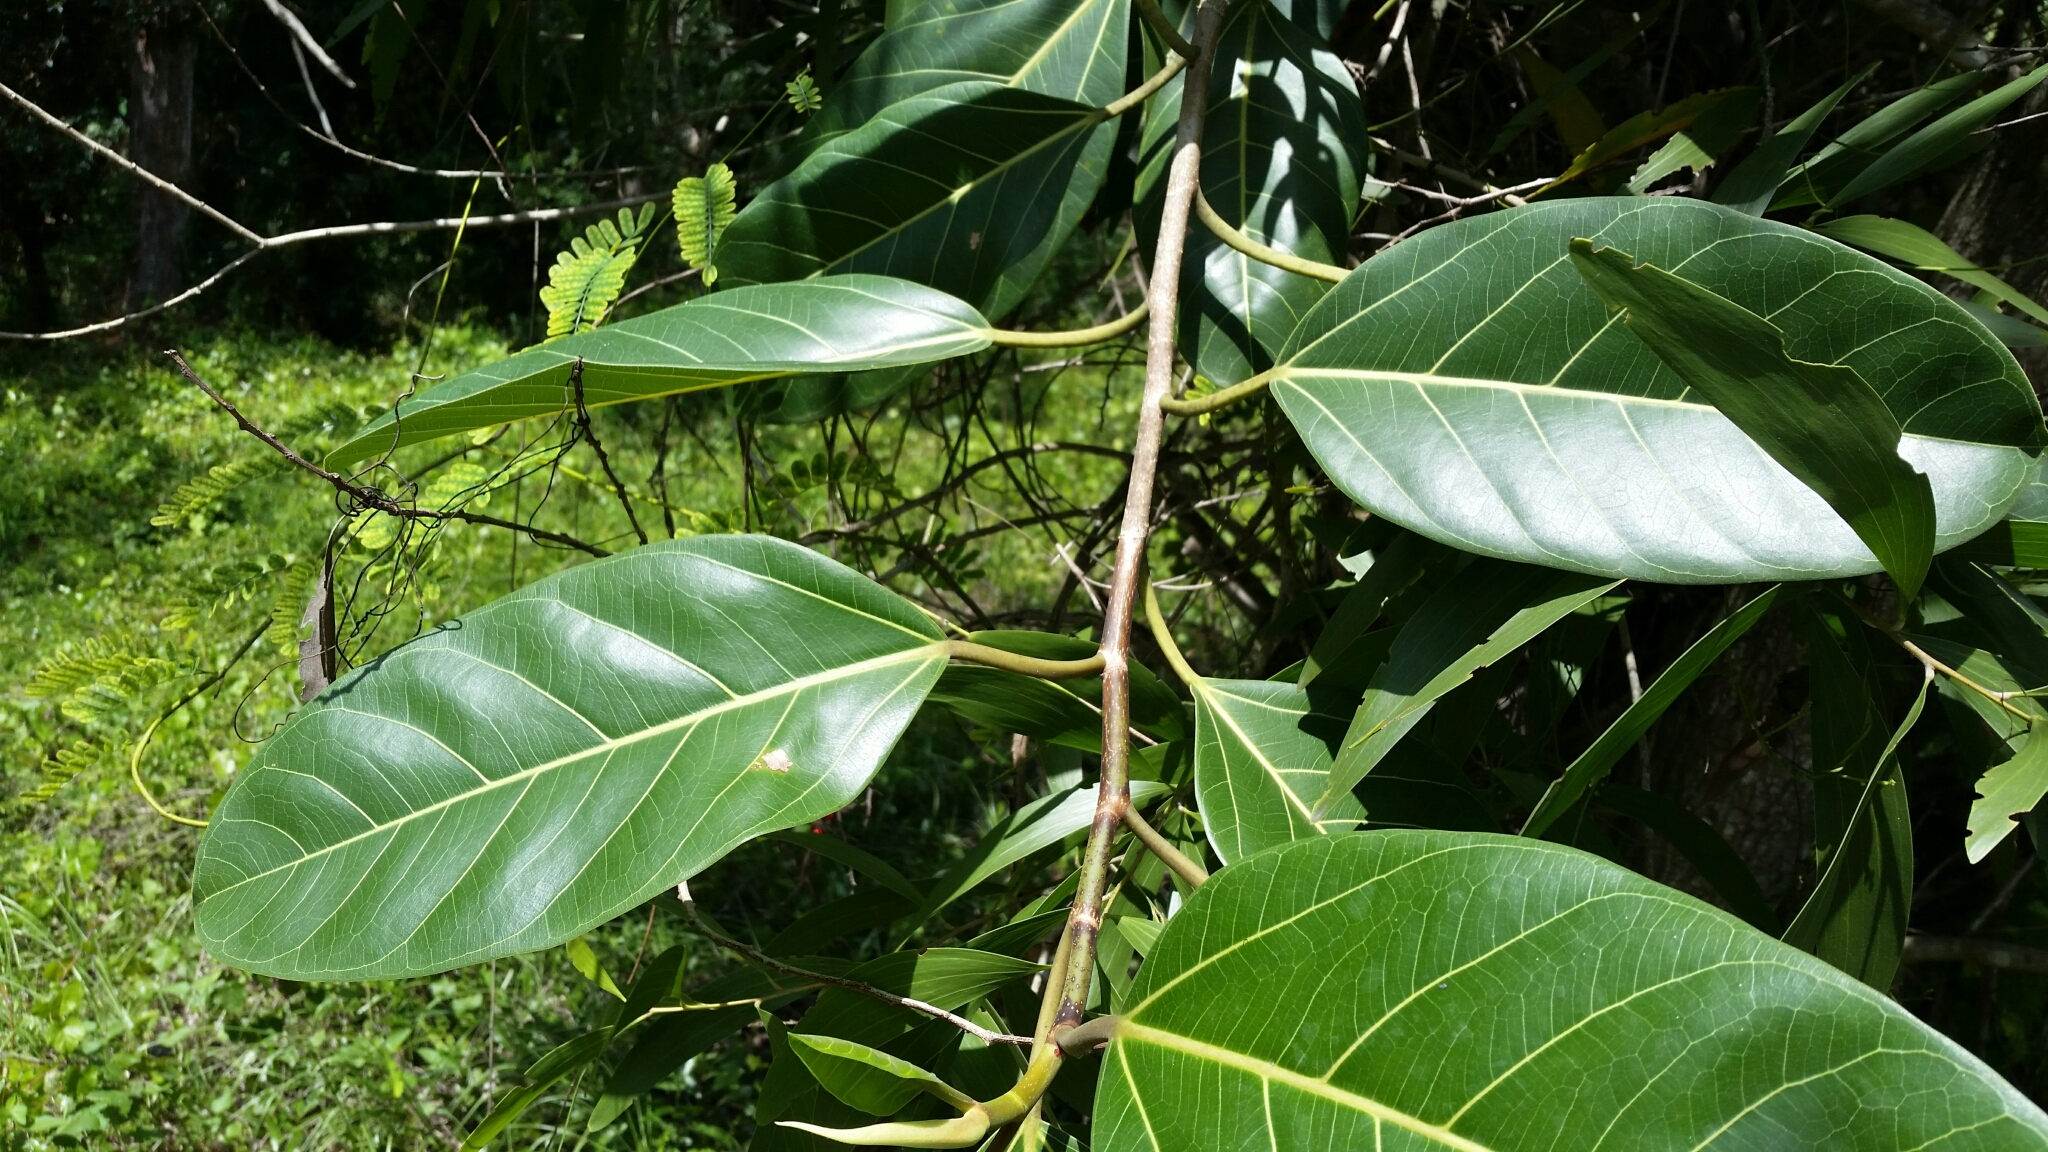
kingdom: Plantae
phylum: Tracheophyta
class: Magnoliopsida
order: Rosales
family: Moraceae
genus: Ficus
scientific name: Ficus altissima
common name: Council tree
